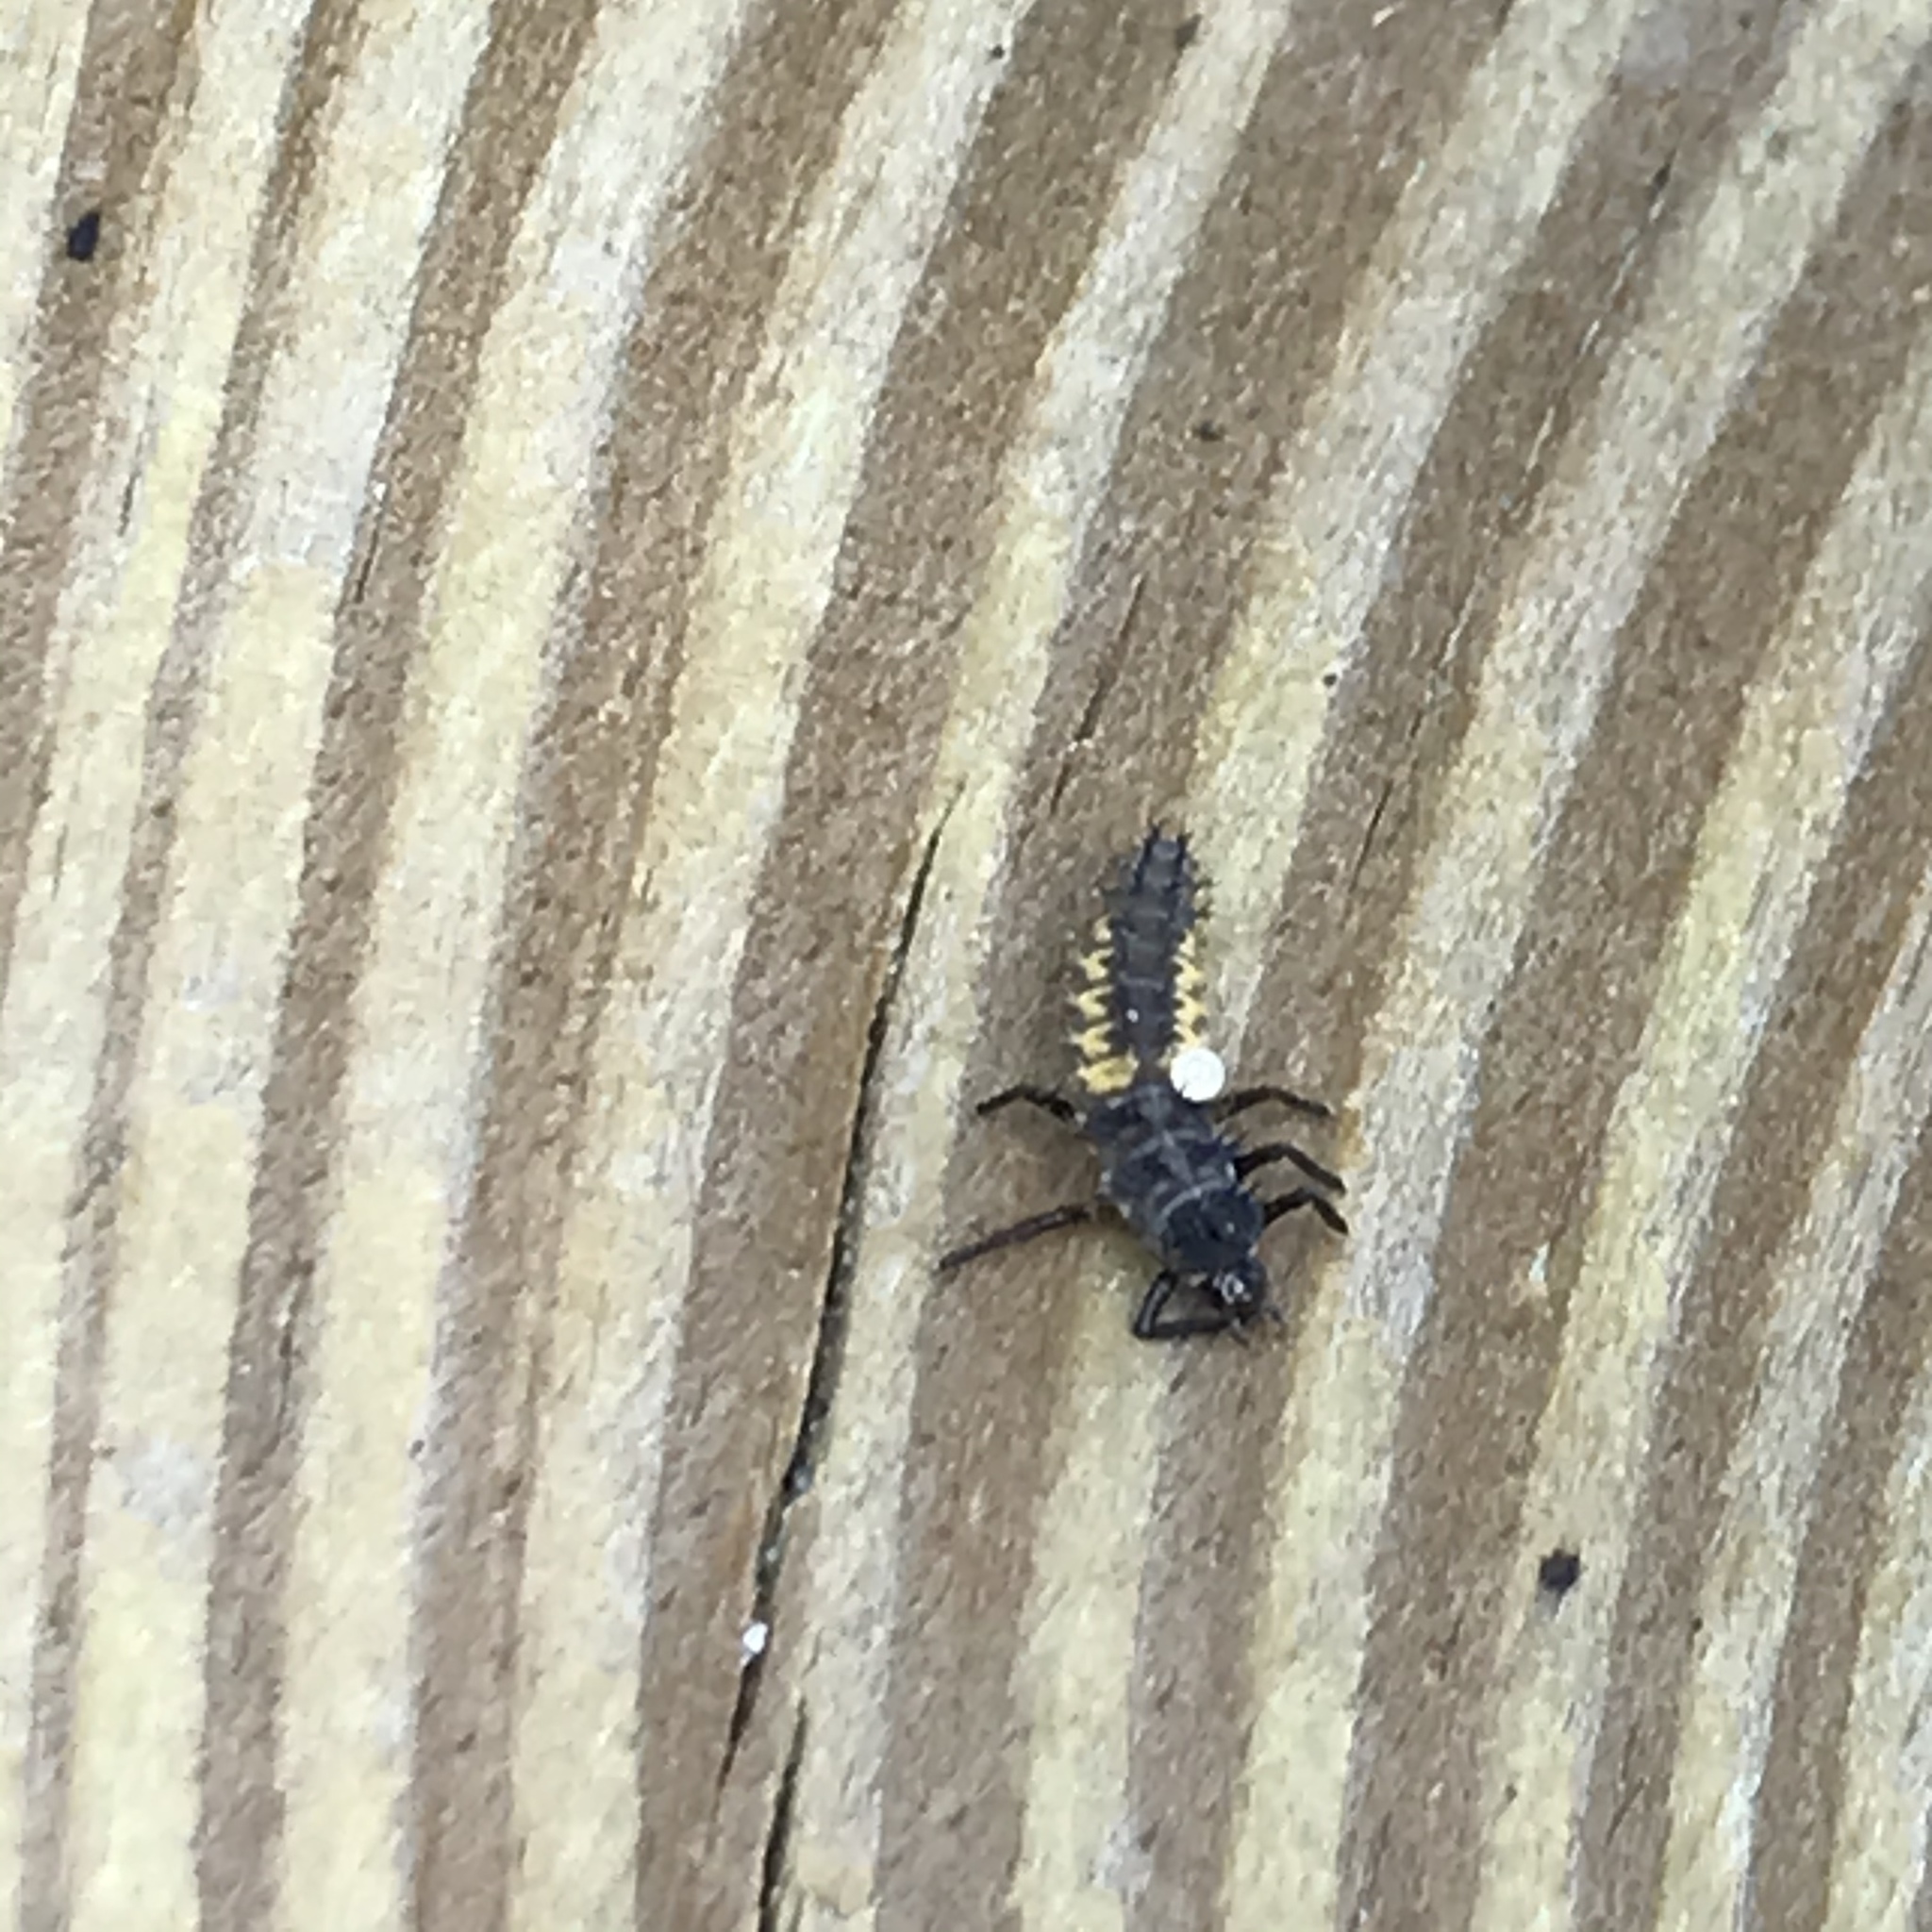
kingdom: Animalia
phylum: Arthropoda
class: Insecta
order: Coleoptera
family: Coccinellidae
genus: Harmonia
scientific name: Harmonia axyridis
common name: Harlequin ladybird
